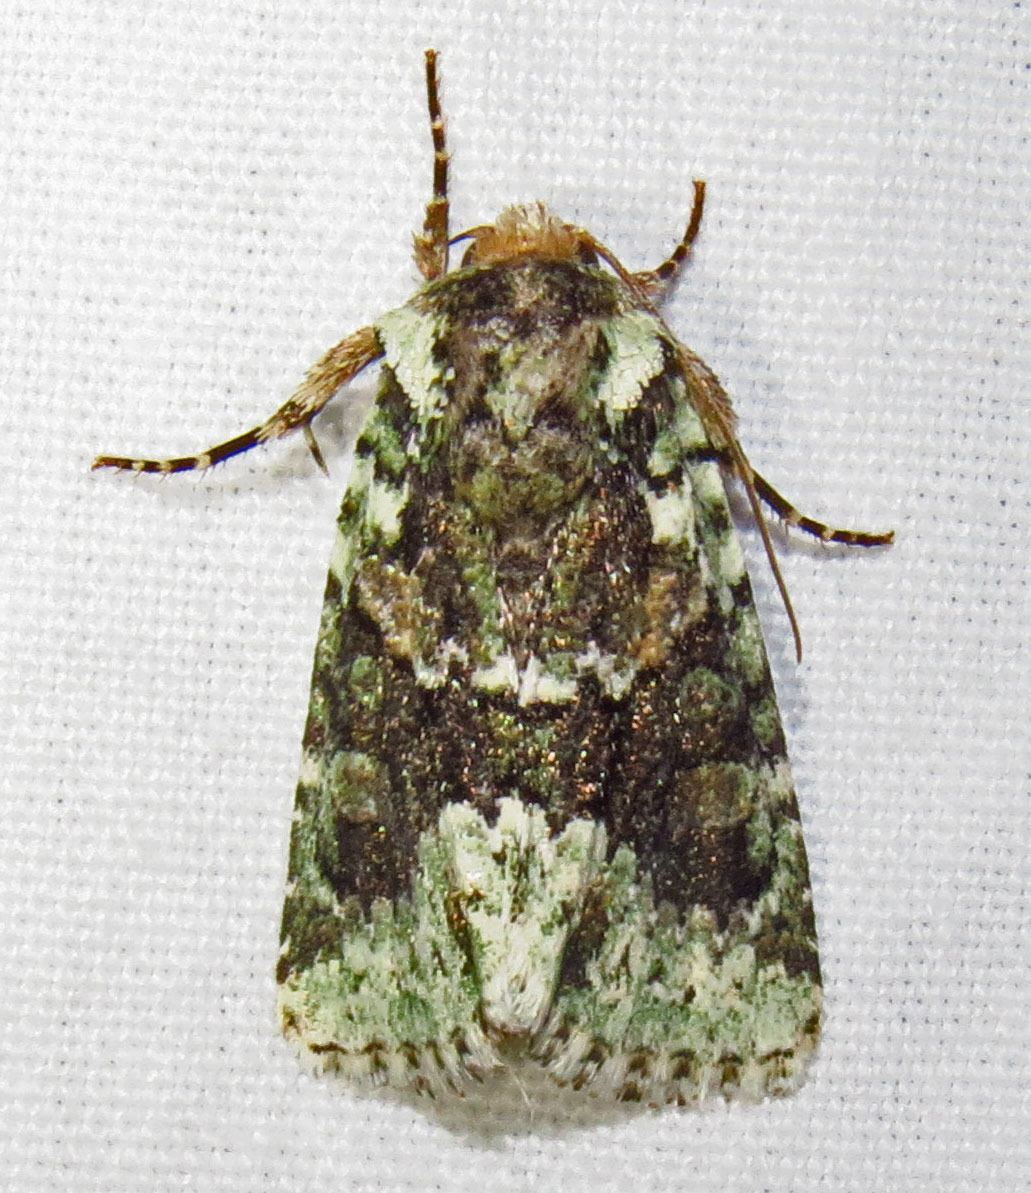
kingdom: Animalia
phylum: Arthropoda
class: Insecta
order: Lepidoptera
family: Noctuidae
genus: Lacinipolia
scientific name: Lacinipolia explicata
